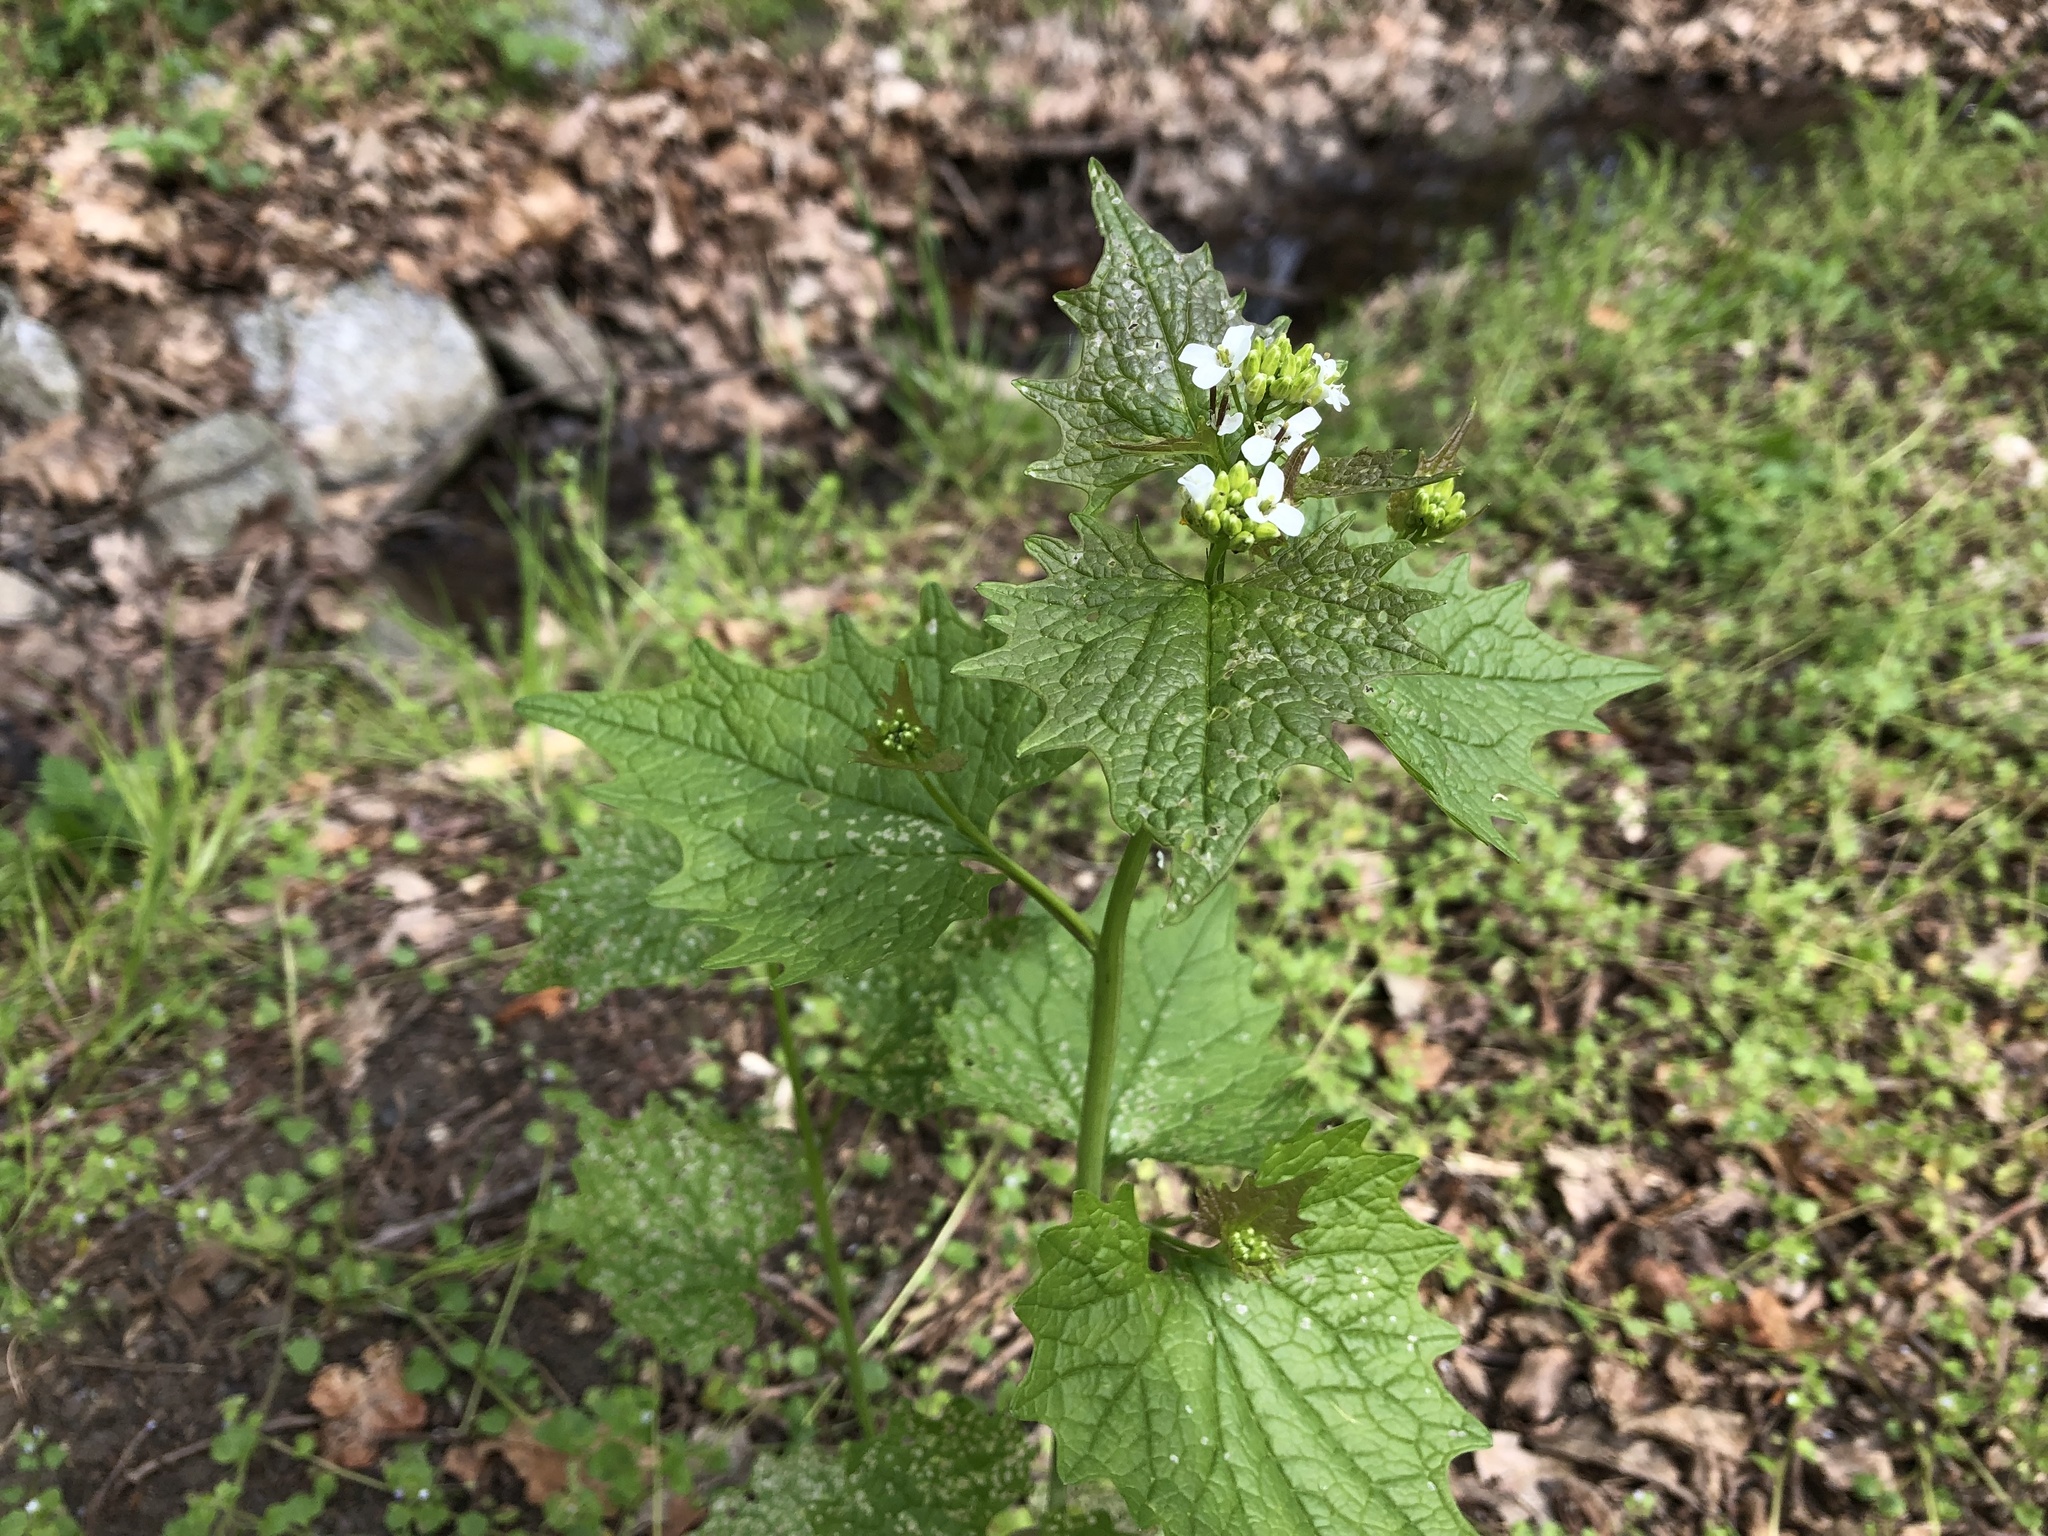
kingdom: Plantae
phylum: Tracheophyta
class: Magnoliopsida
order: Brassicales
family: Brassicaceae
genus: Alliaria
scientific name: Alliaria petiolata
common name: Garlic mustard
